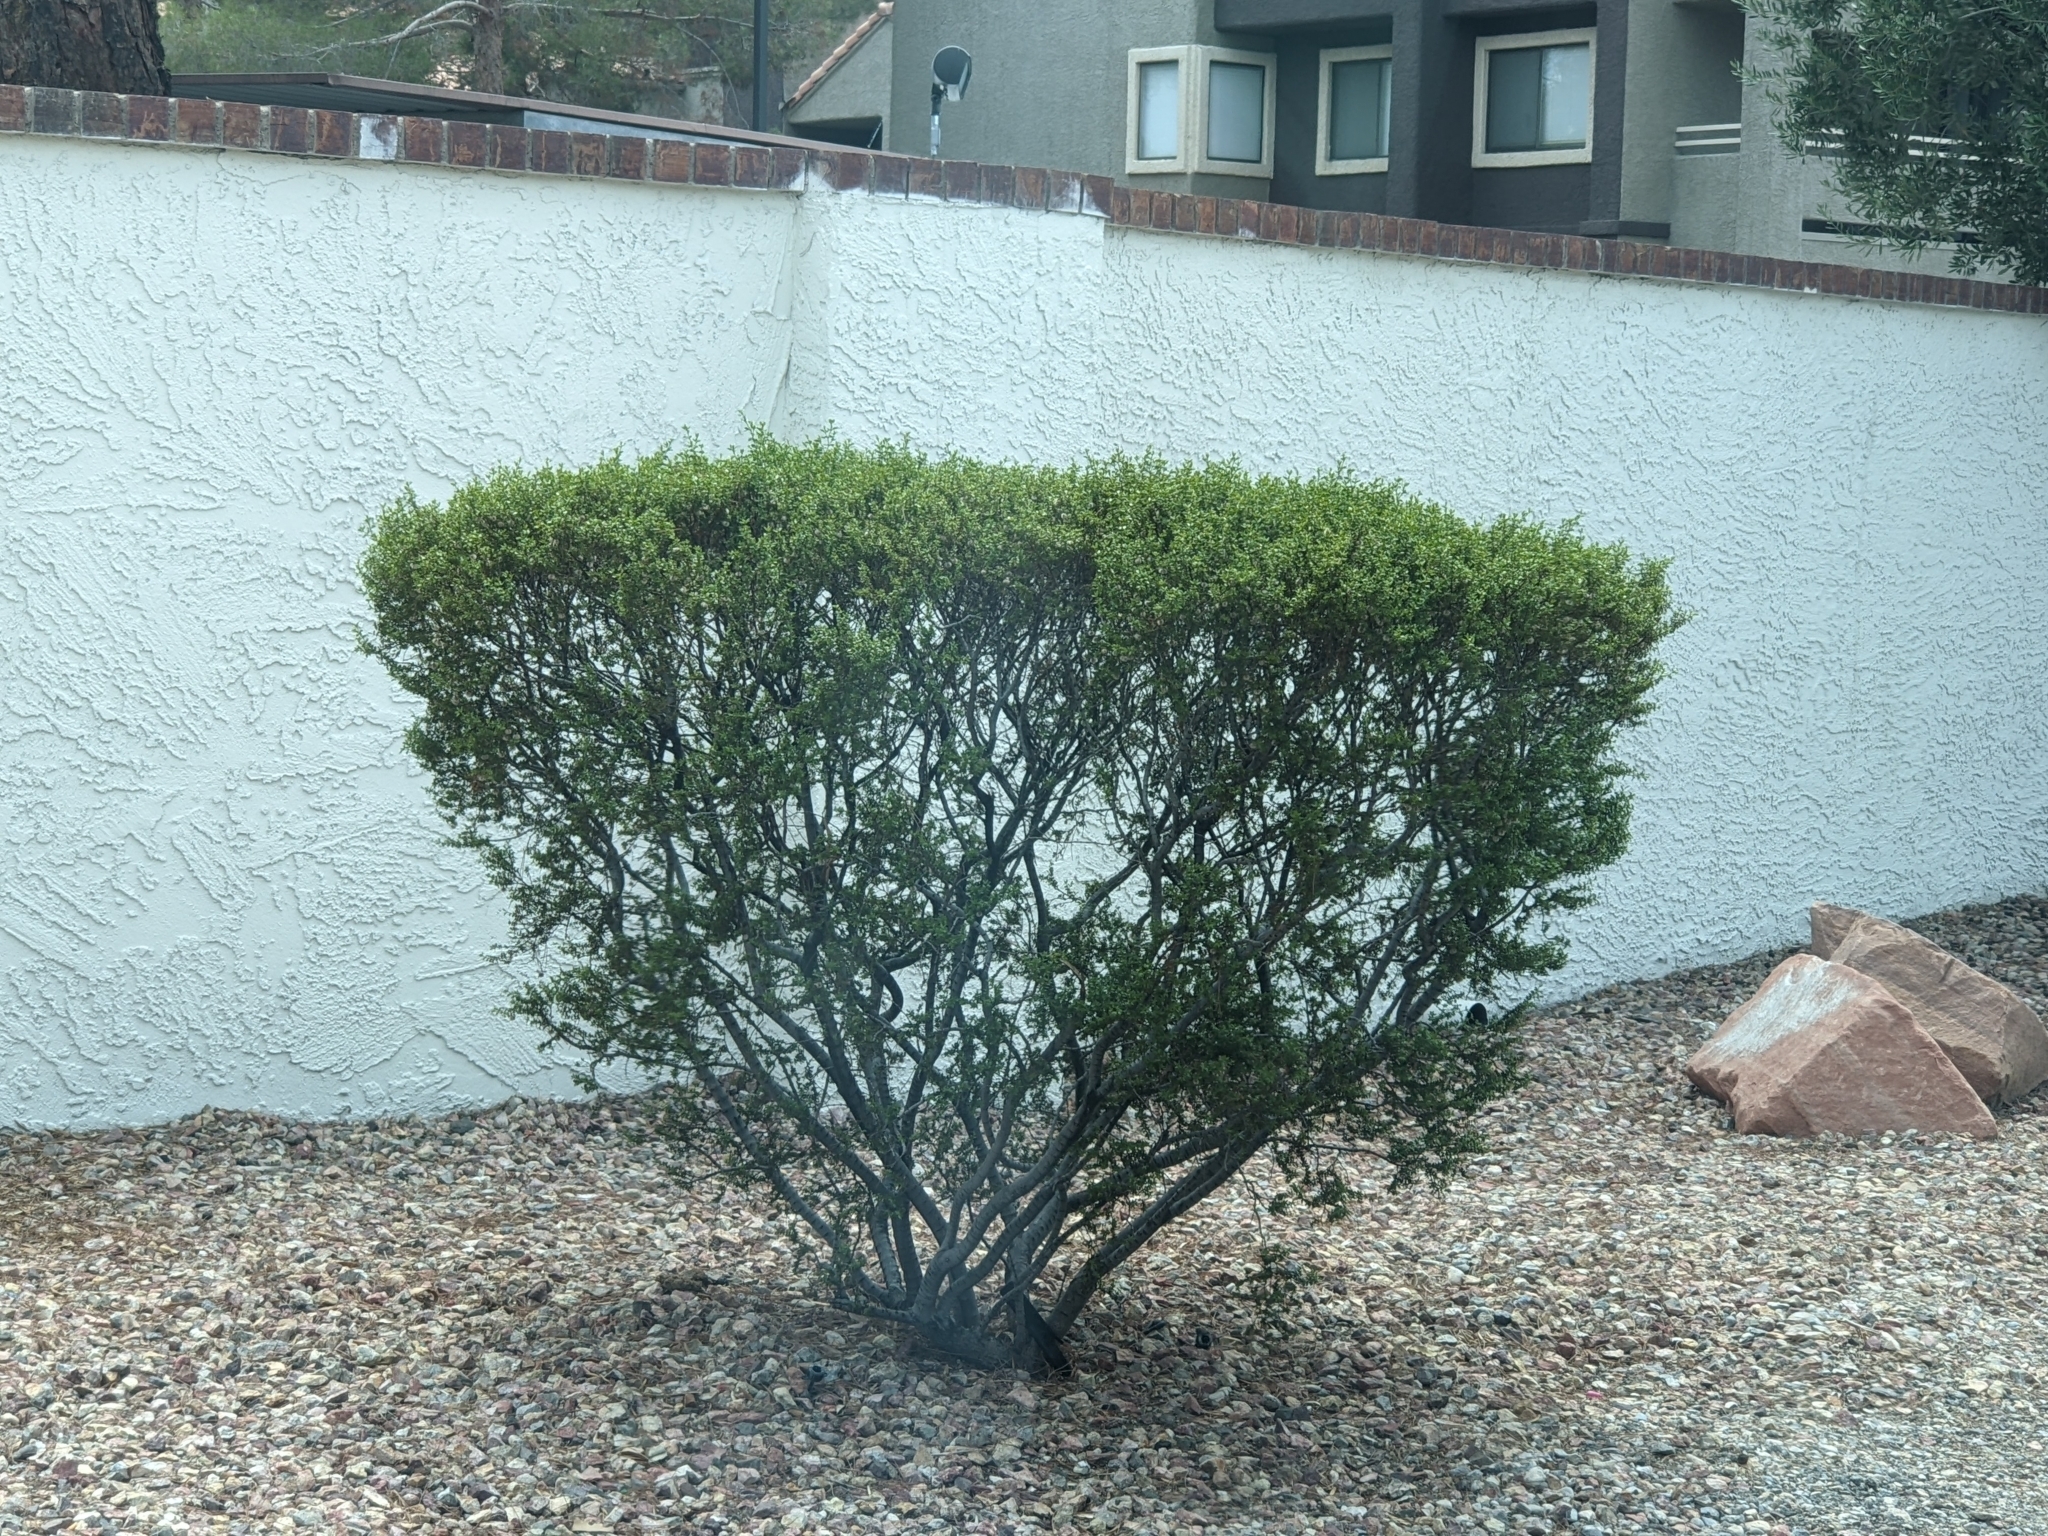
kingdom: Plantae
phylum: Tracheophyta
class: Magnoliopsida
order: Zygophyllales
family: Zygophyllaceae
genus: Larrea
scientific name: Larrea tridentata
